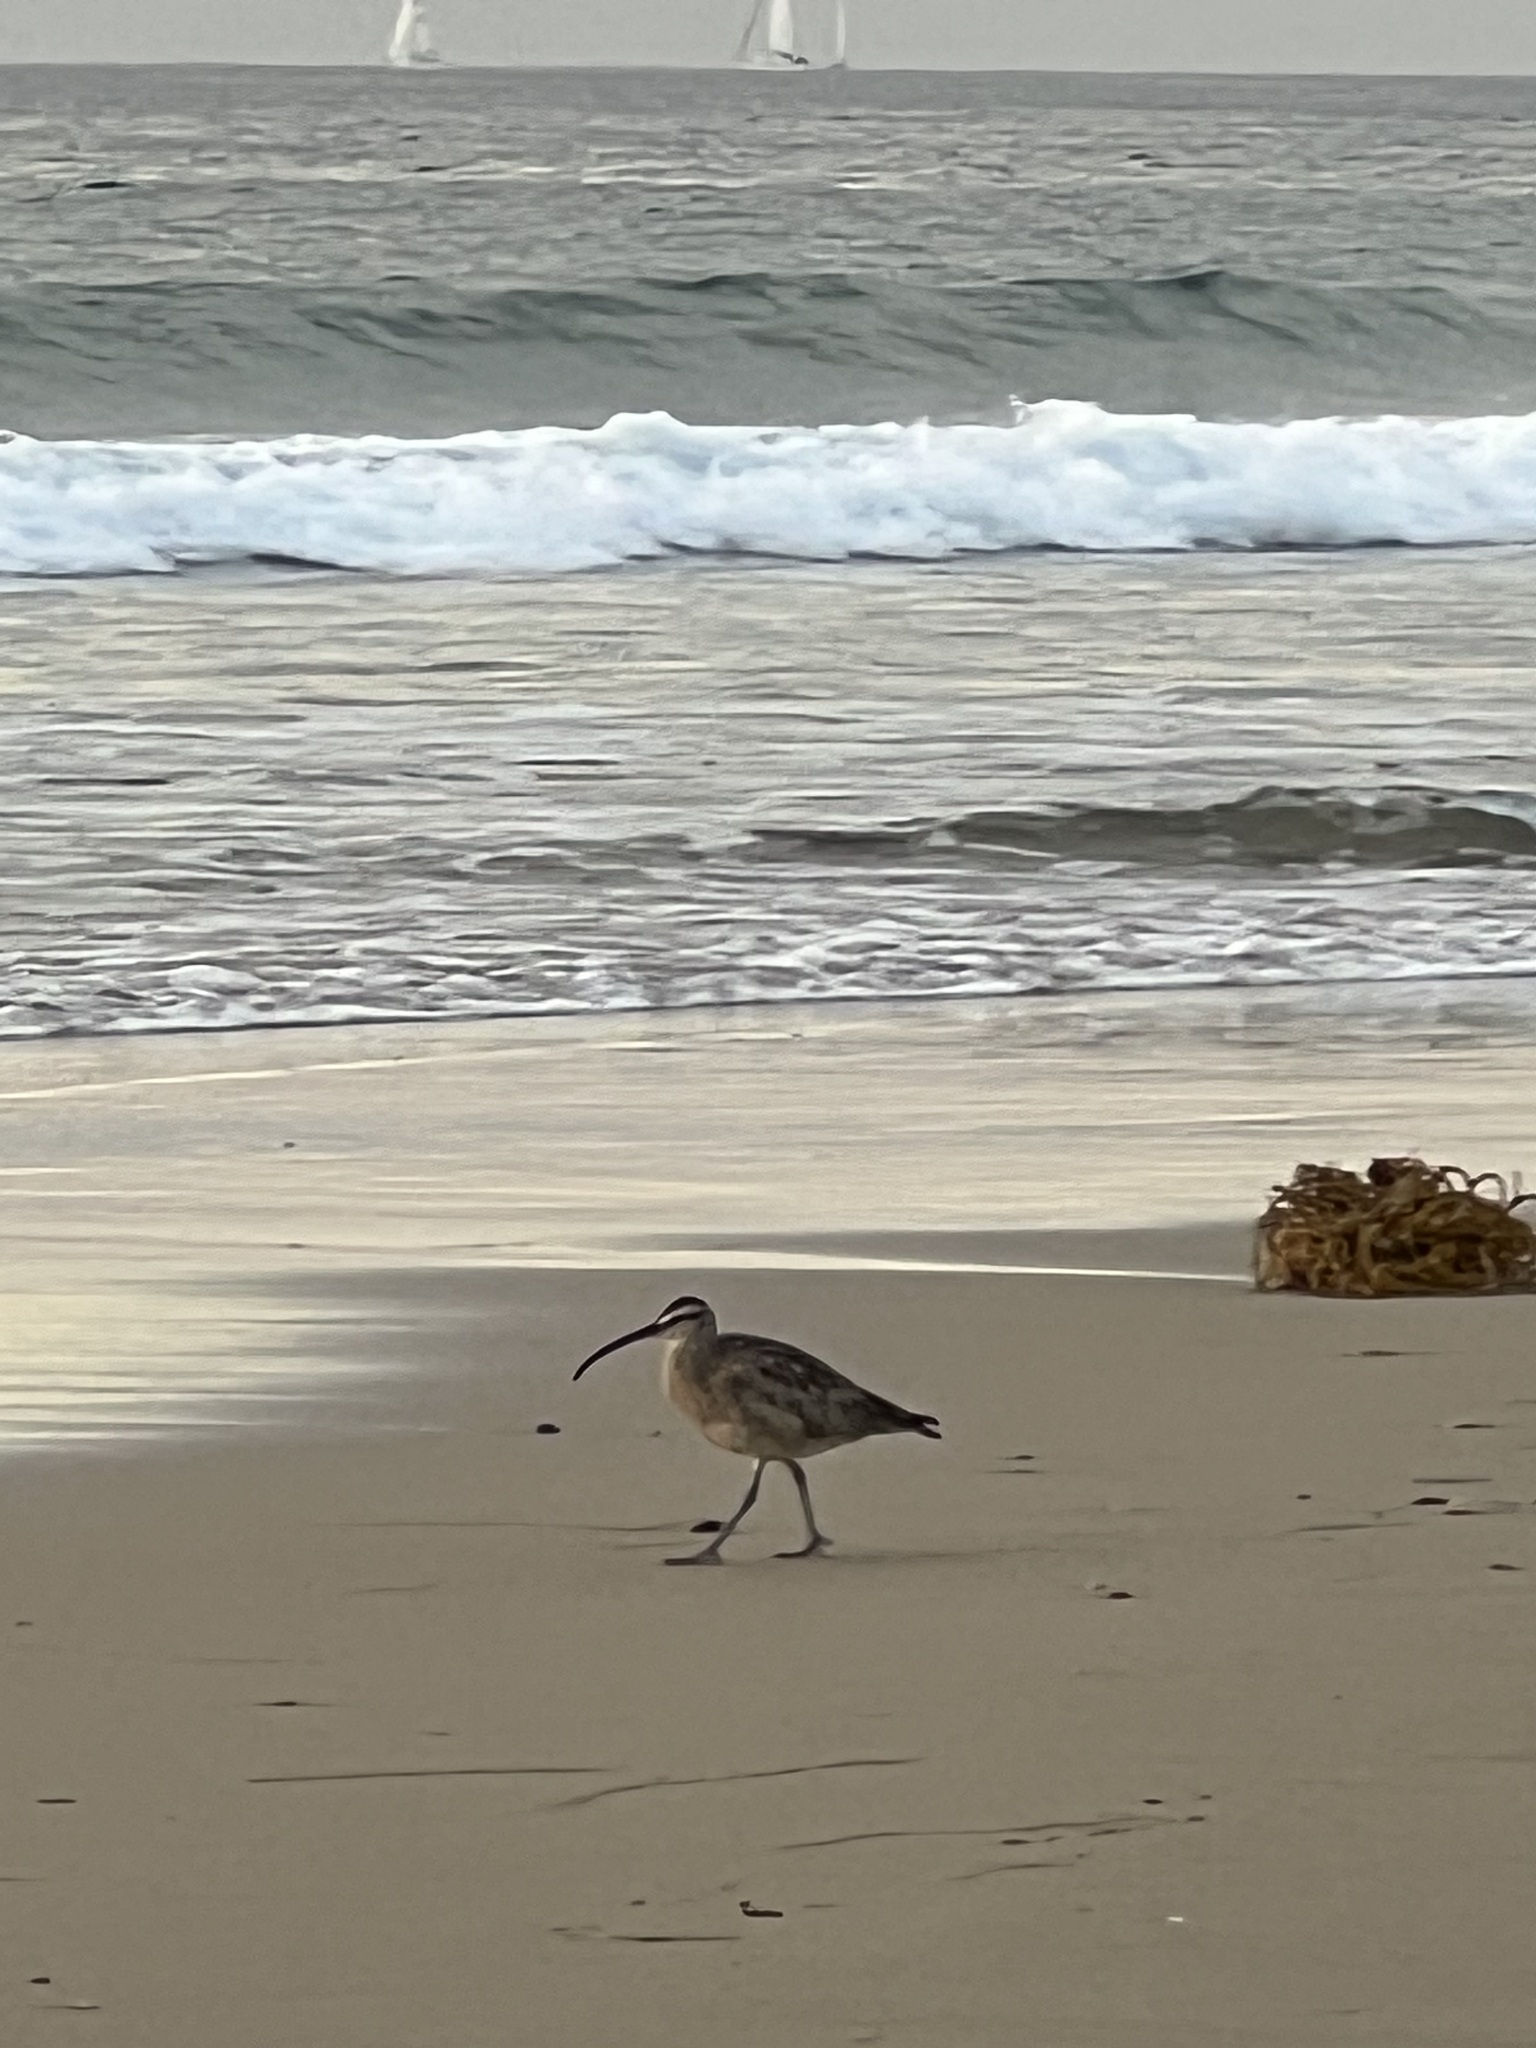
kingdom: Animalia
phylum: Chordata
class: Aves
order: Charadriiformes
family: Scolopacidae
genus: Numenius
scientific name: Numenius phaeopus
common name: Whimbrel
